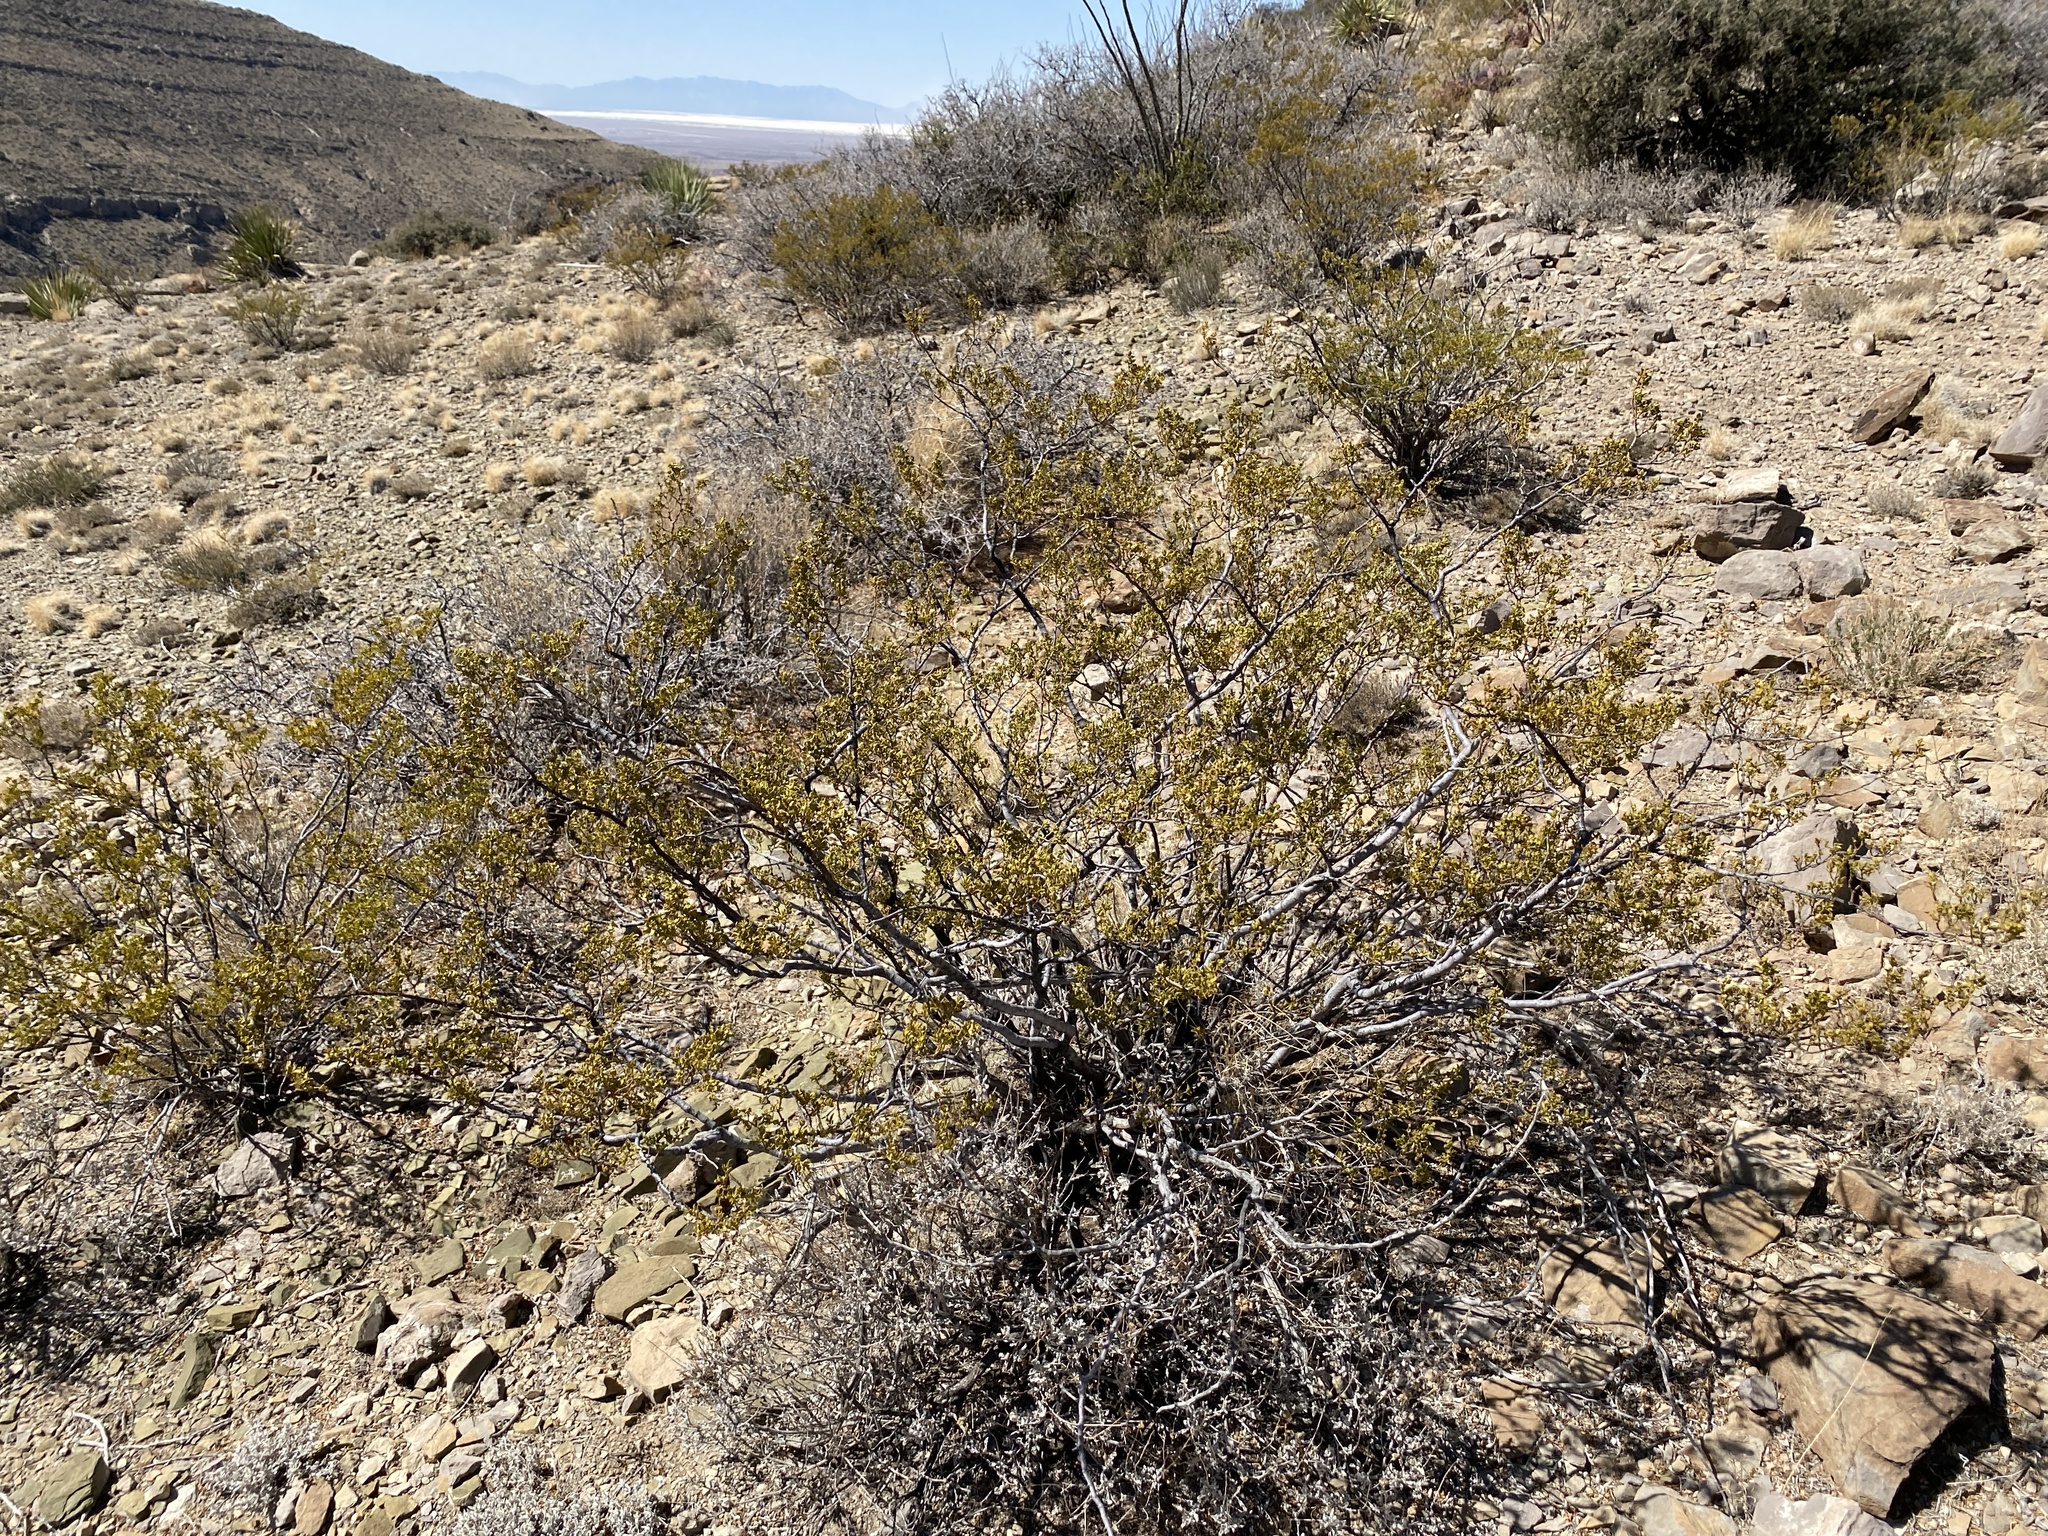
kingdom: Plantae
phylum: Tracheophyta
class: Magnoliopsida
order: Zygophyllales
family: Zygophyllaceae
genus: Larrea
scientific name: Larrea tridentata
